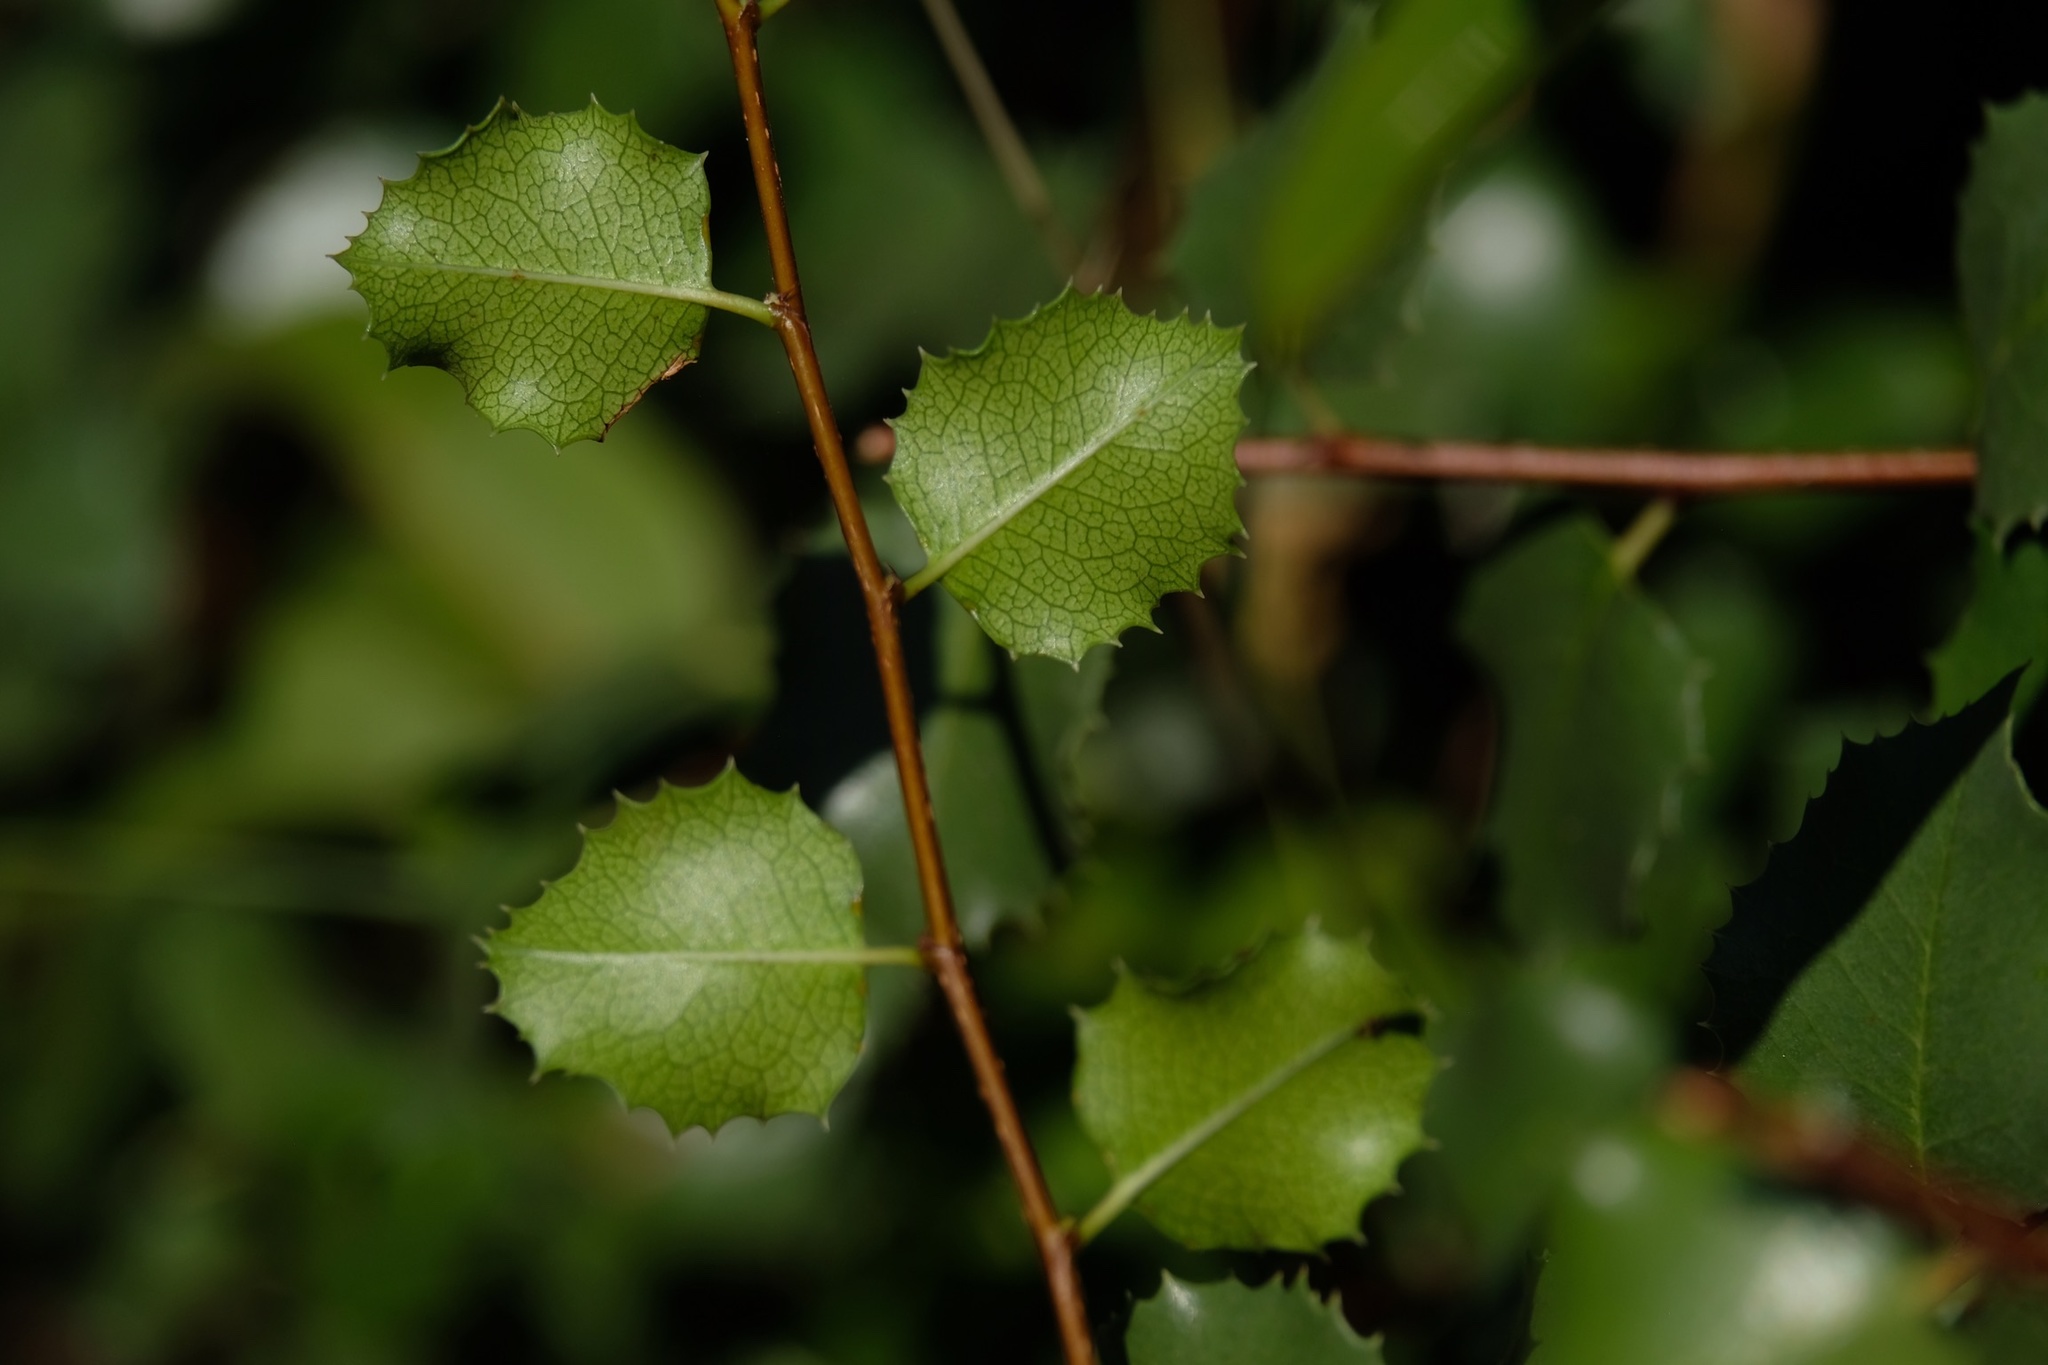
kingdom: Plantae
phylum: Tracheophyta
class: Magnoliopsida
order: Rosales
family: Rosaceae
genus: Prunus
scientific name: Prunus ilicifolia
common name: Hollyleaf cherry
